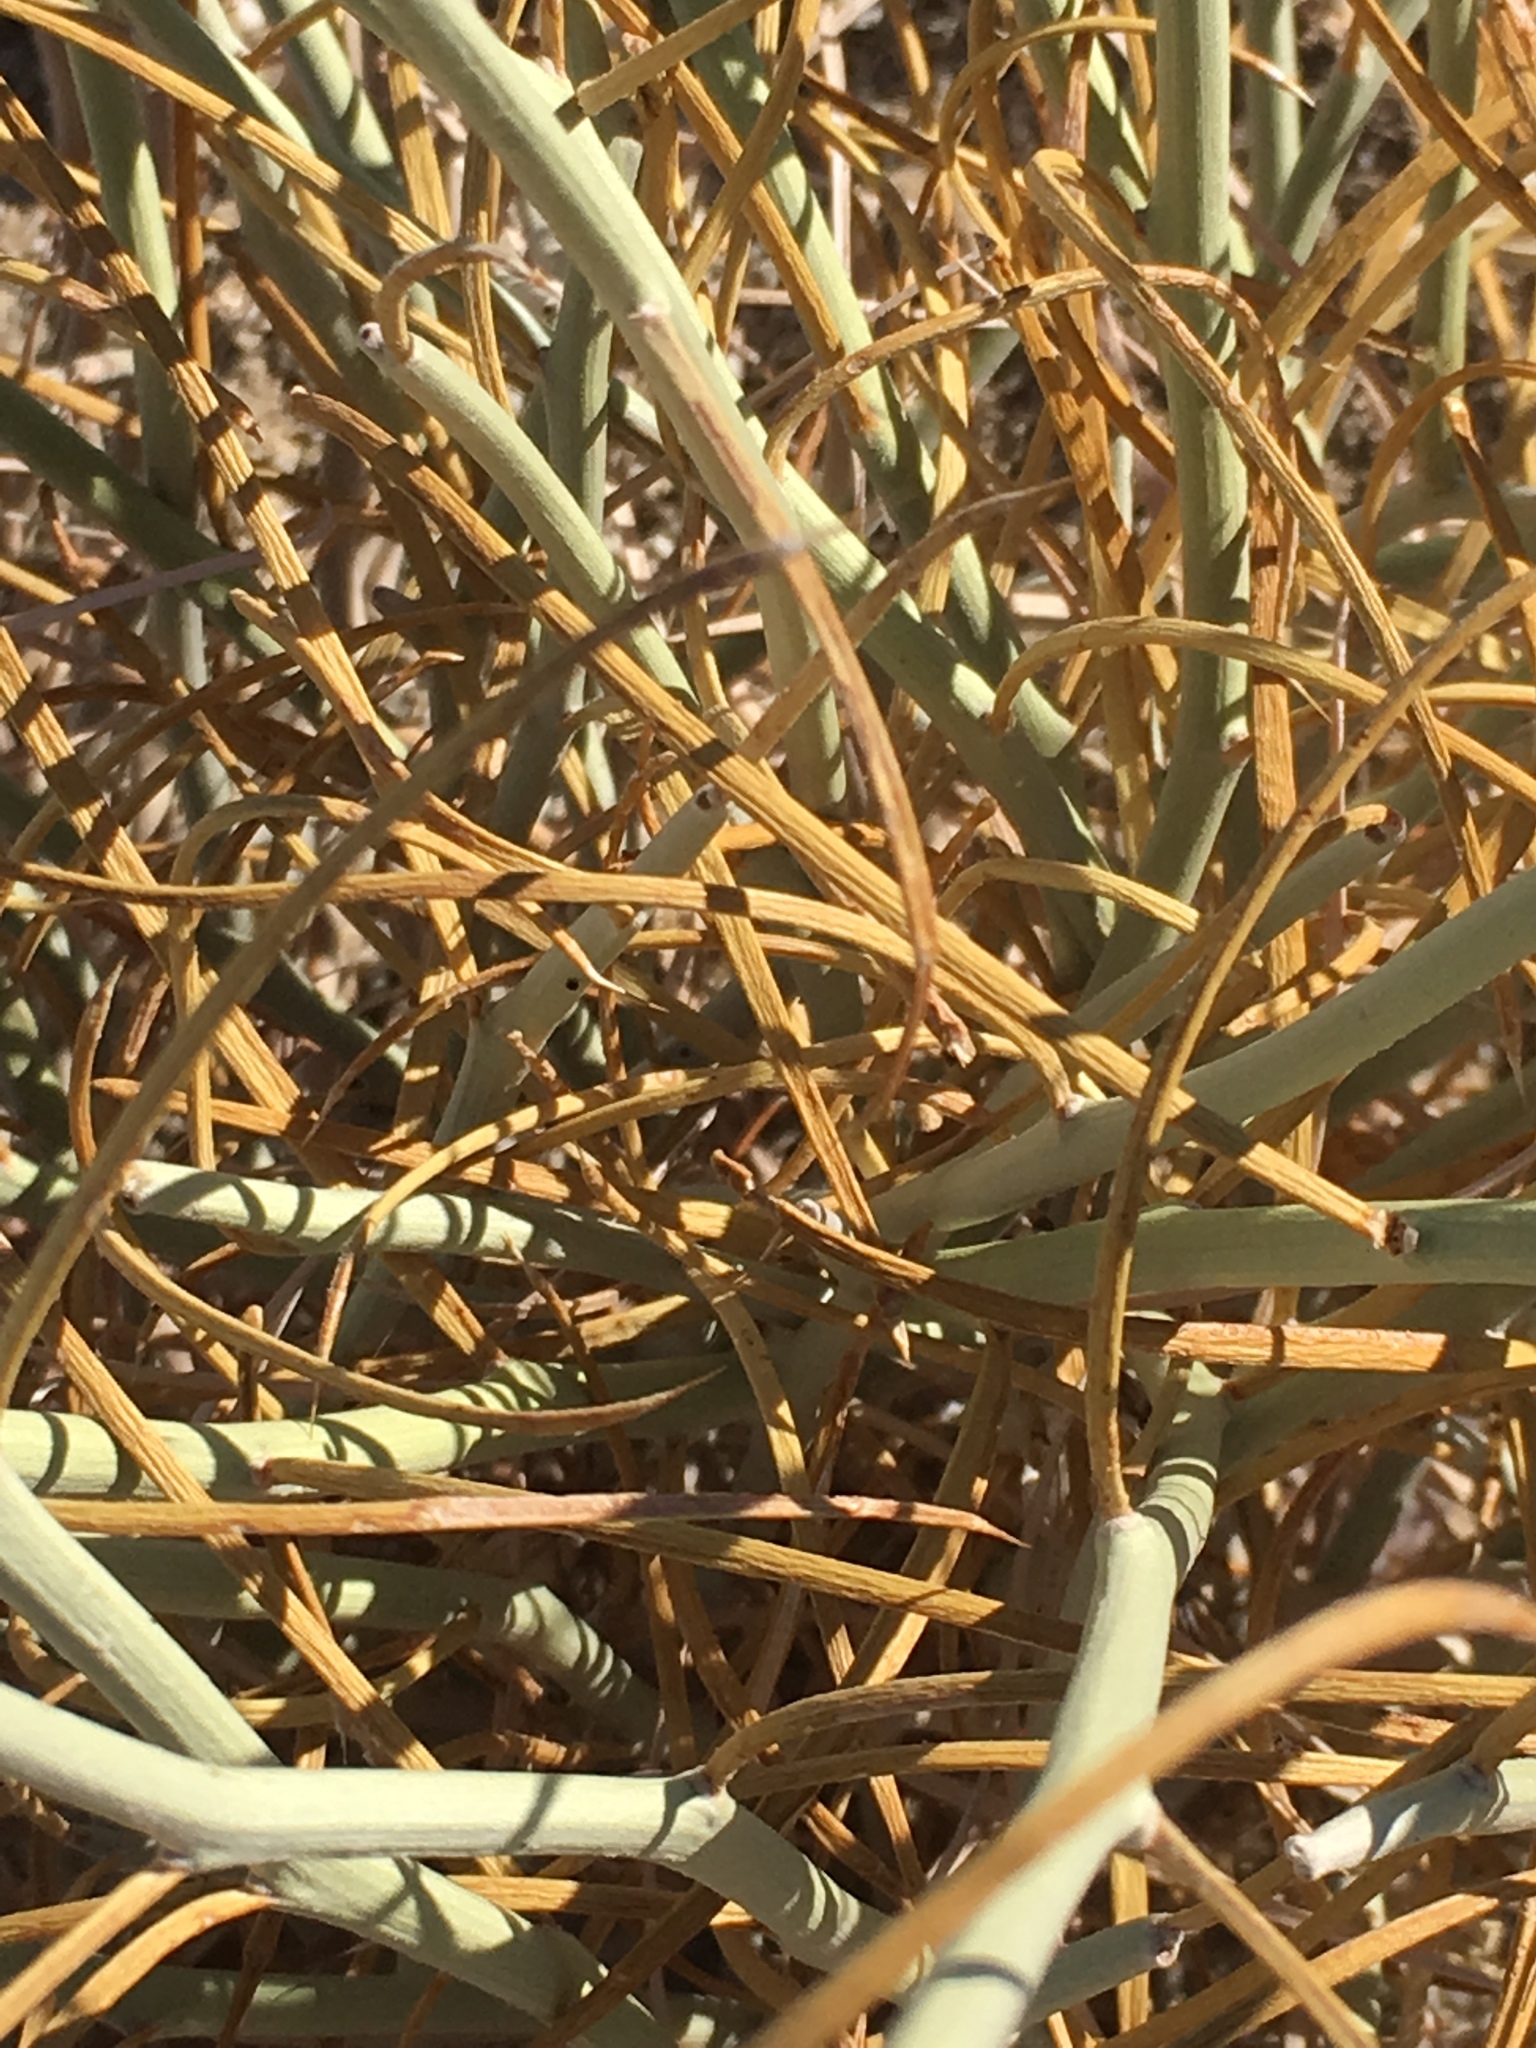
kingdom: Plantae
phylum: Tracheophyta
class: Magnoliopsida
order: Fabales
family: Fabaceae
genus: Senna
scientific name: Senna armata
